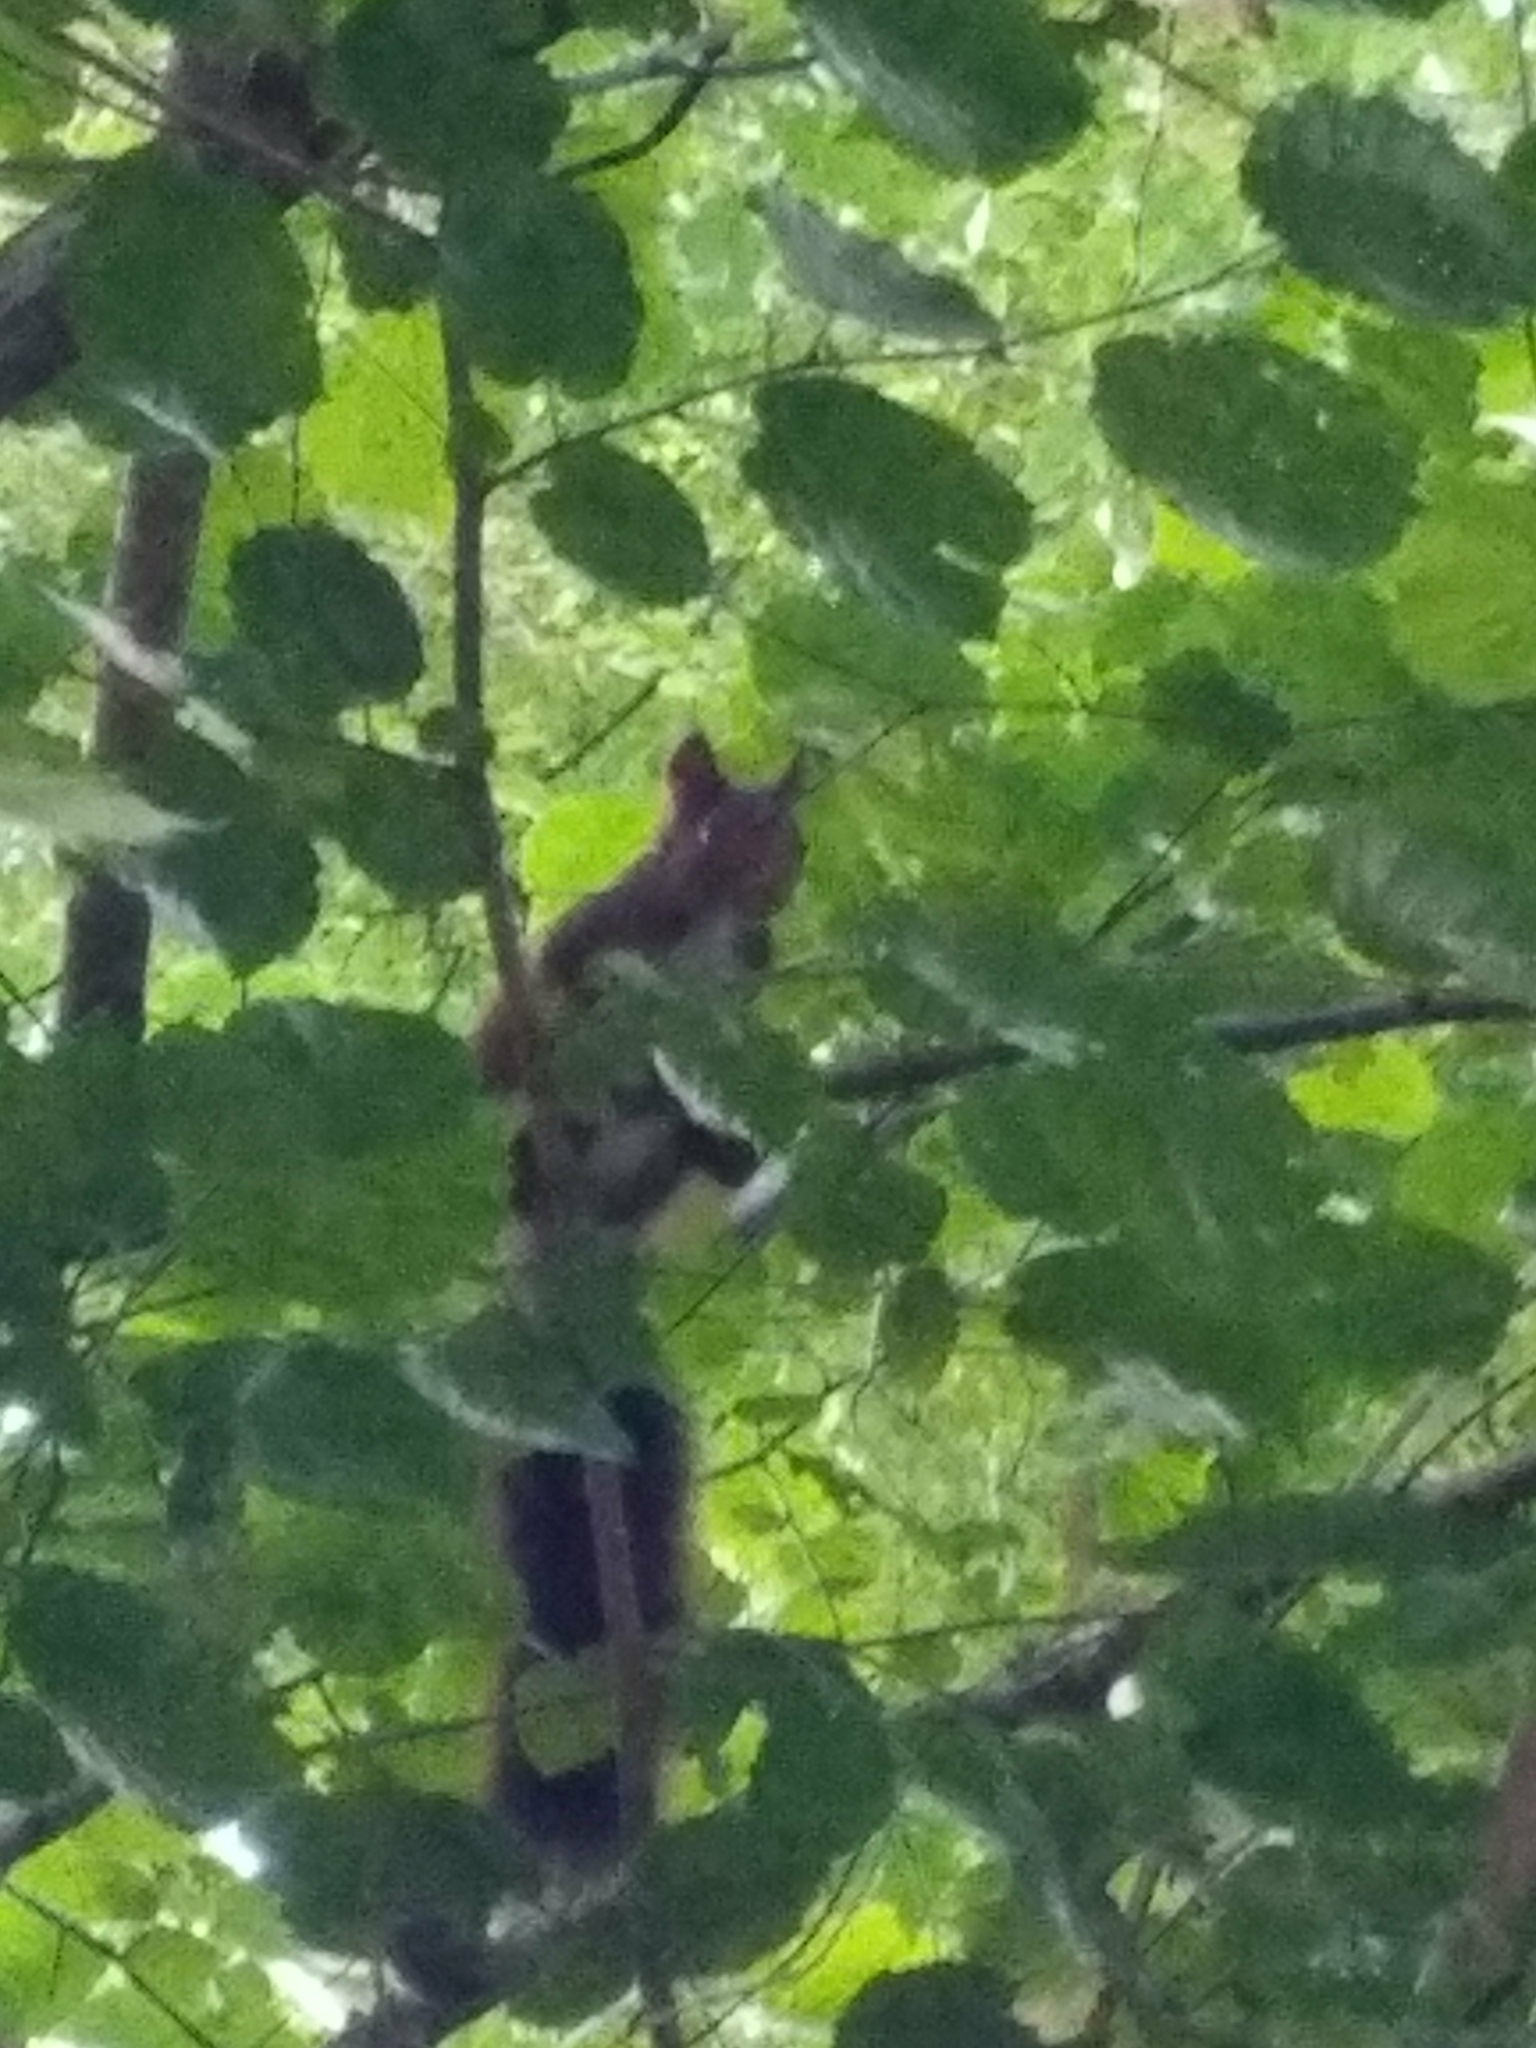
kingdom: Animalia
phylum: Chordata
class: Mammalia
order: Rodentia
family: Sciuridae
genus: Sciurus
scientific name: Sciurus vulgaris
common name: Eurasian red squirrel
